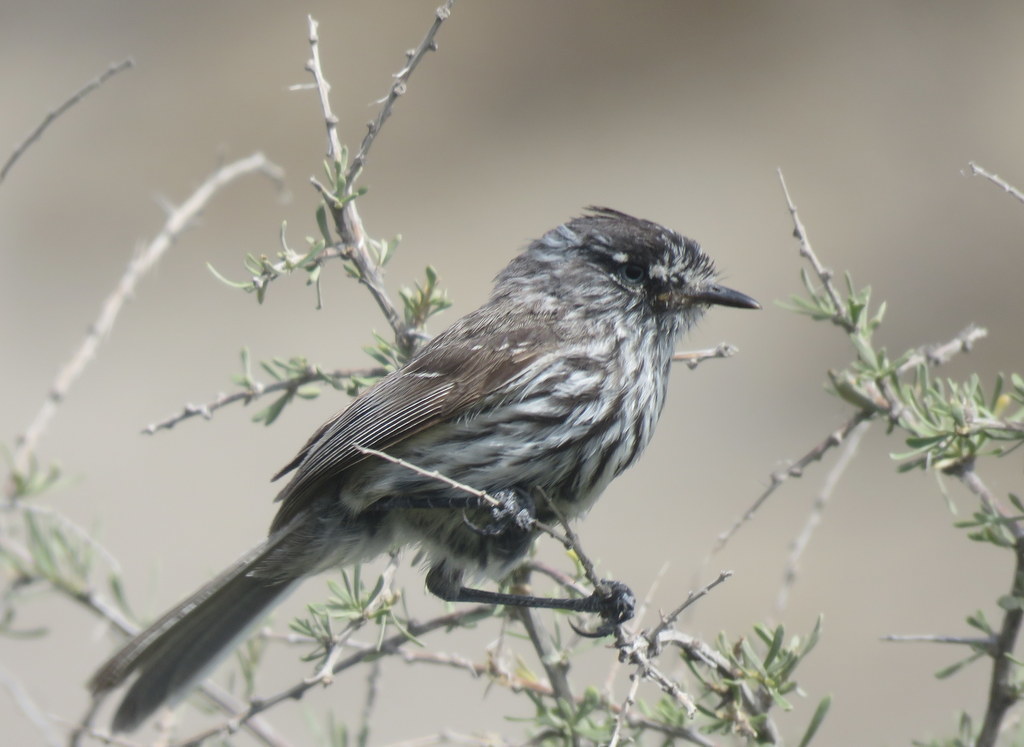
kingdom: Animalia
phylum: Chordata
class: Aves
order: Passeriformes
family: Tyrannidae
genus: Anairetes
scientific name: Anairetes parulus
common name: Tufted tit-tyrant
